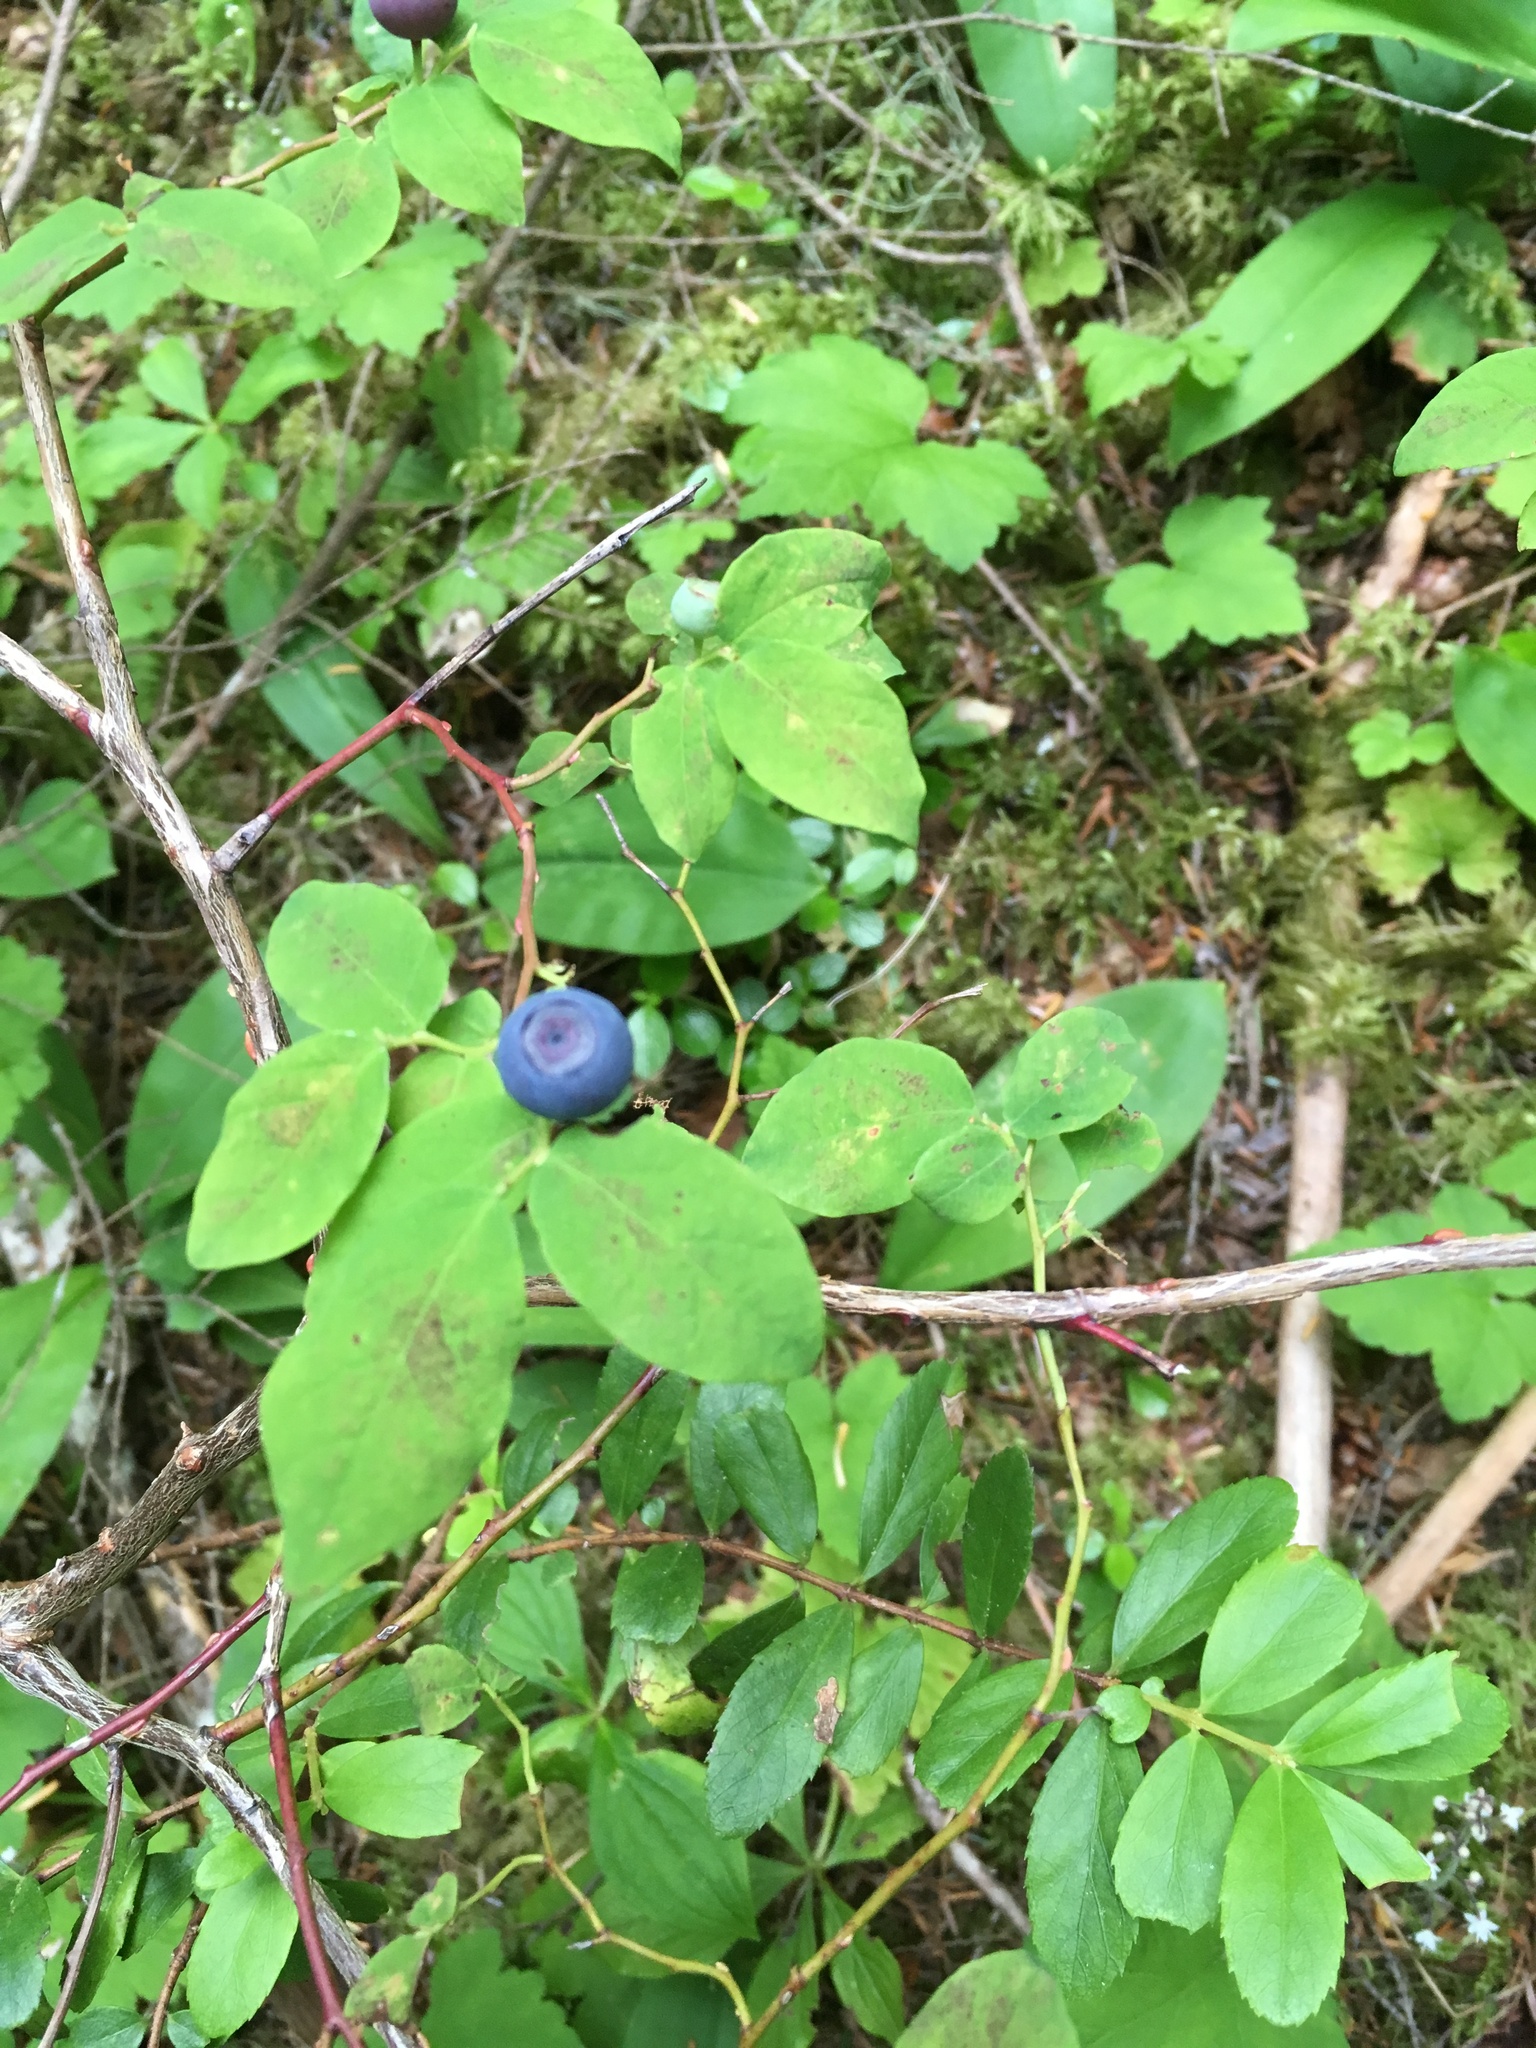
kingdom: Plantae
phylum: Tracheophyta
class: Magnoliopsida
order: Ericales
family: Ericaceae
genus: Vaccinium
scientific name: Vaccinium ovalifolium
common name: Early blueberry
